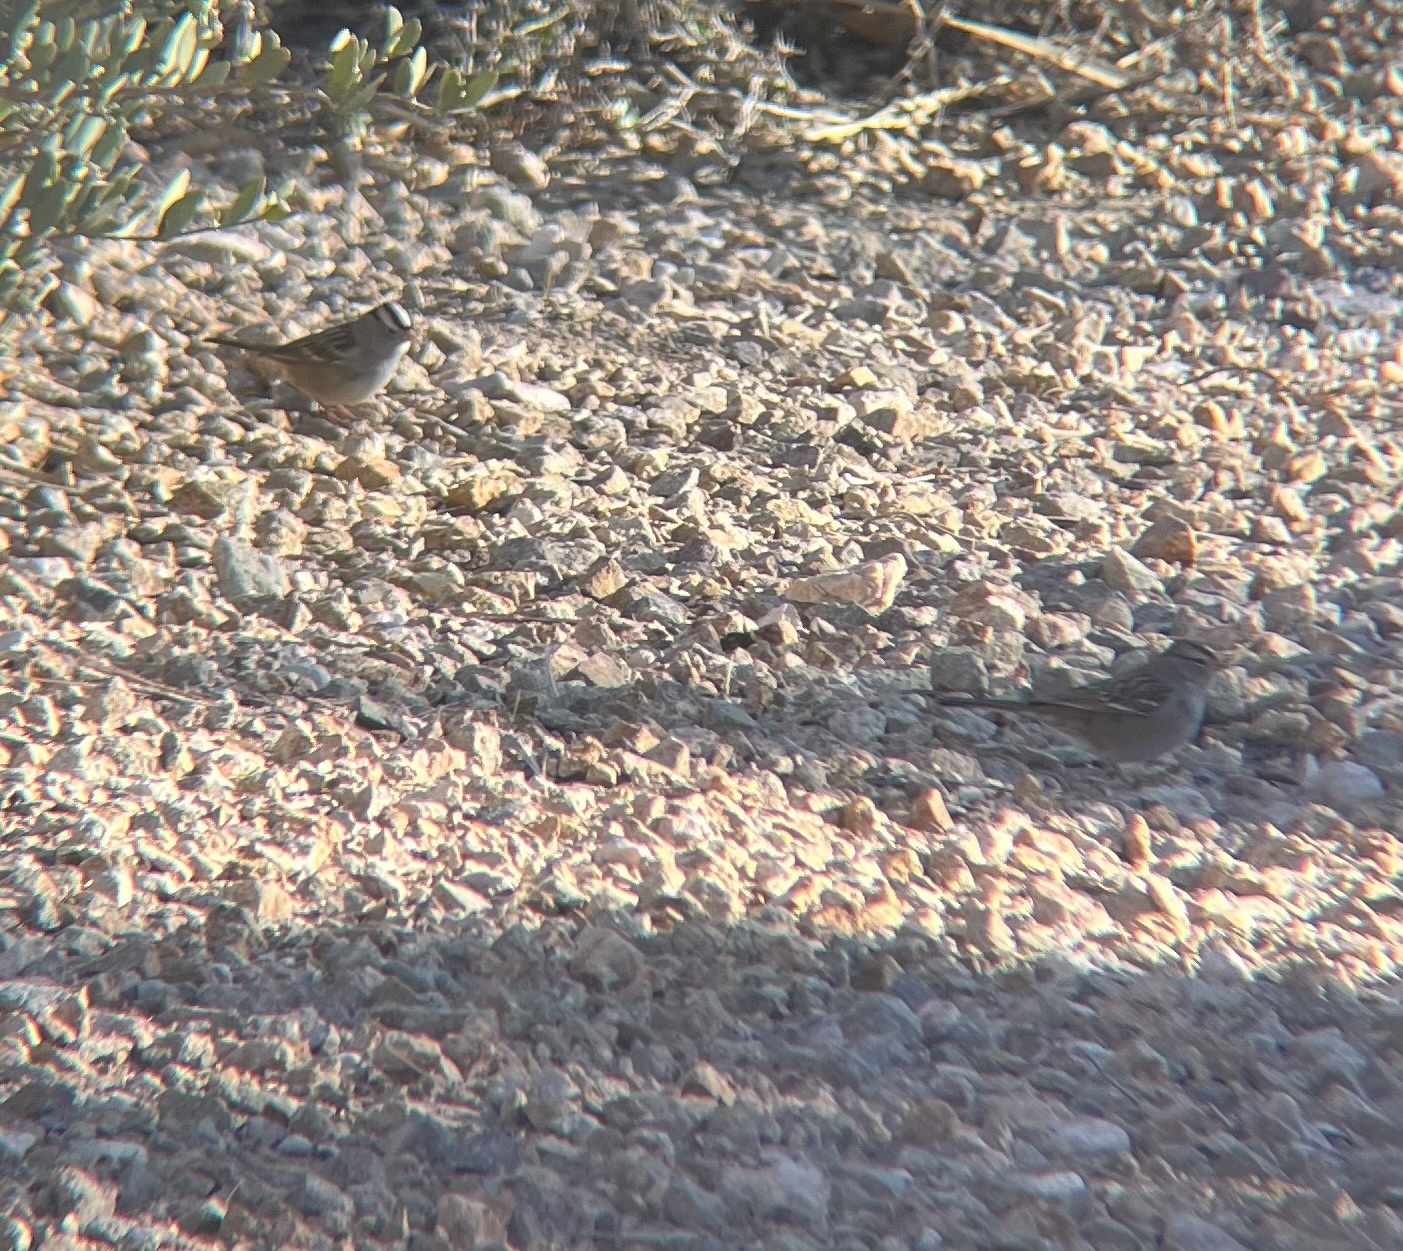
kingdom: Animalia
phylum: Chordata
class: Aves
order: Passeriformes
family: Passerellidae
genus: Zonotrichia
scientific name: Zonotrichia leucophrys
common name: White-crowned sparrow
